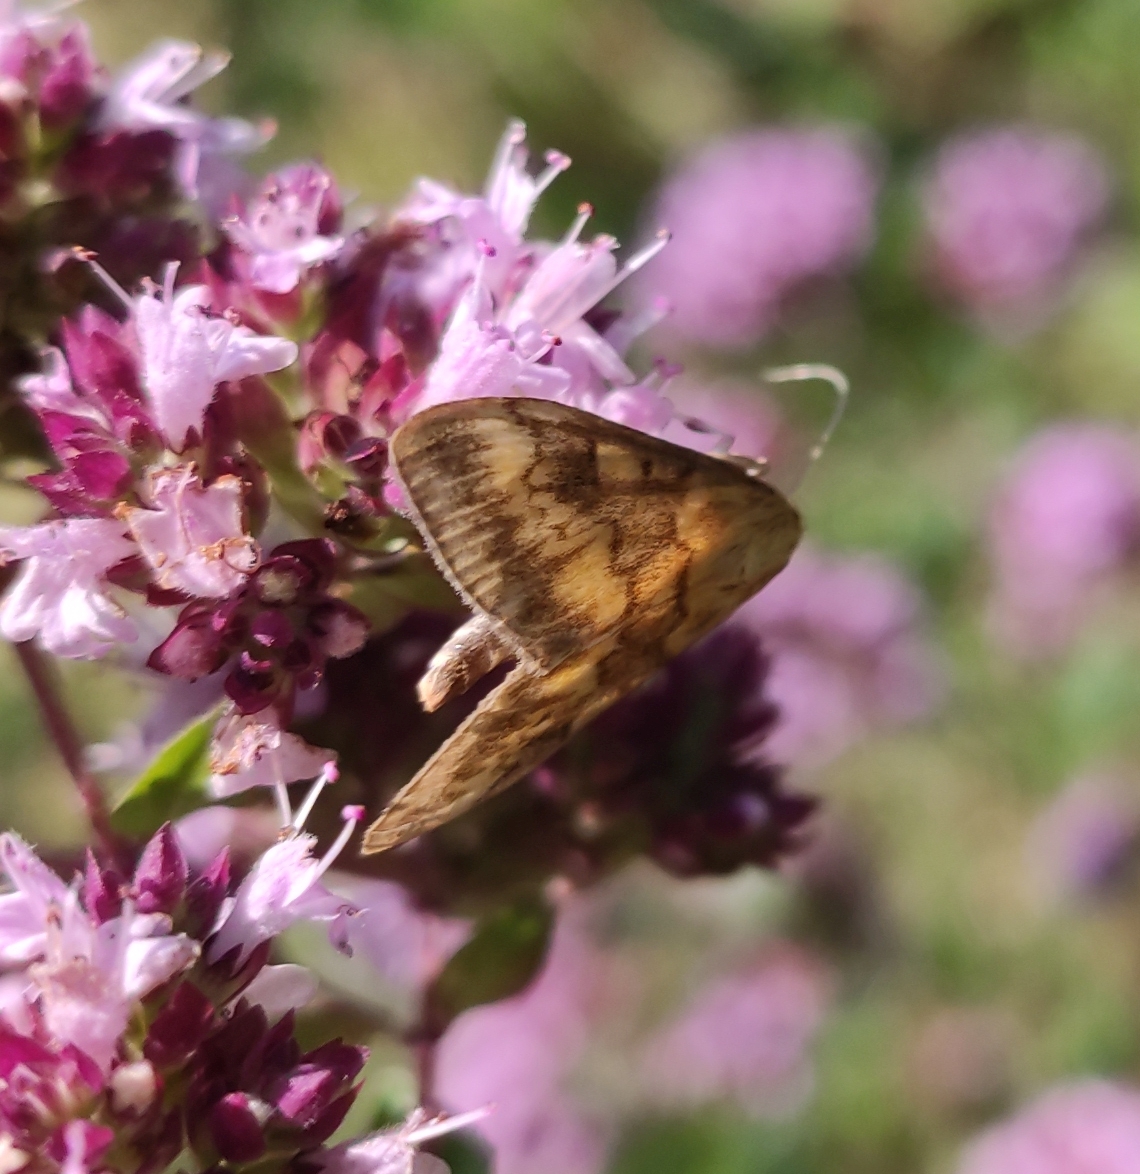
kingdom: Animalia
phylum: Arthropoda
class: Insecta
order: Lepidoptera
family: Crambidae
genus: Ostrinia
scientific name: Ostrinia nubilalis
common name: European corn borer
